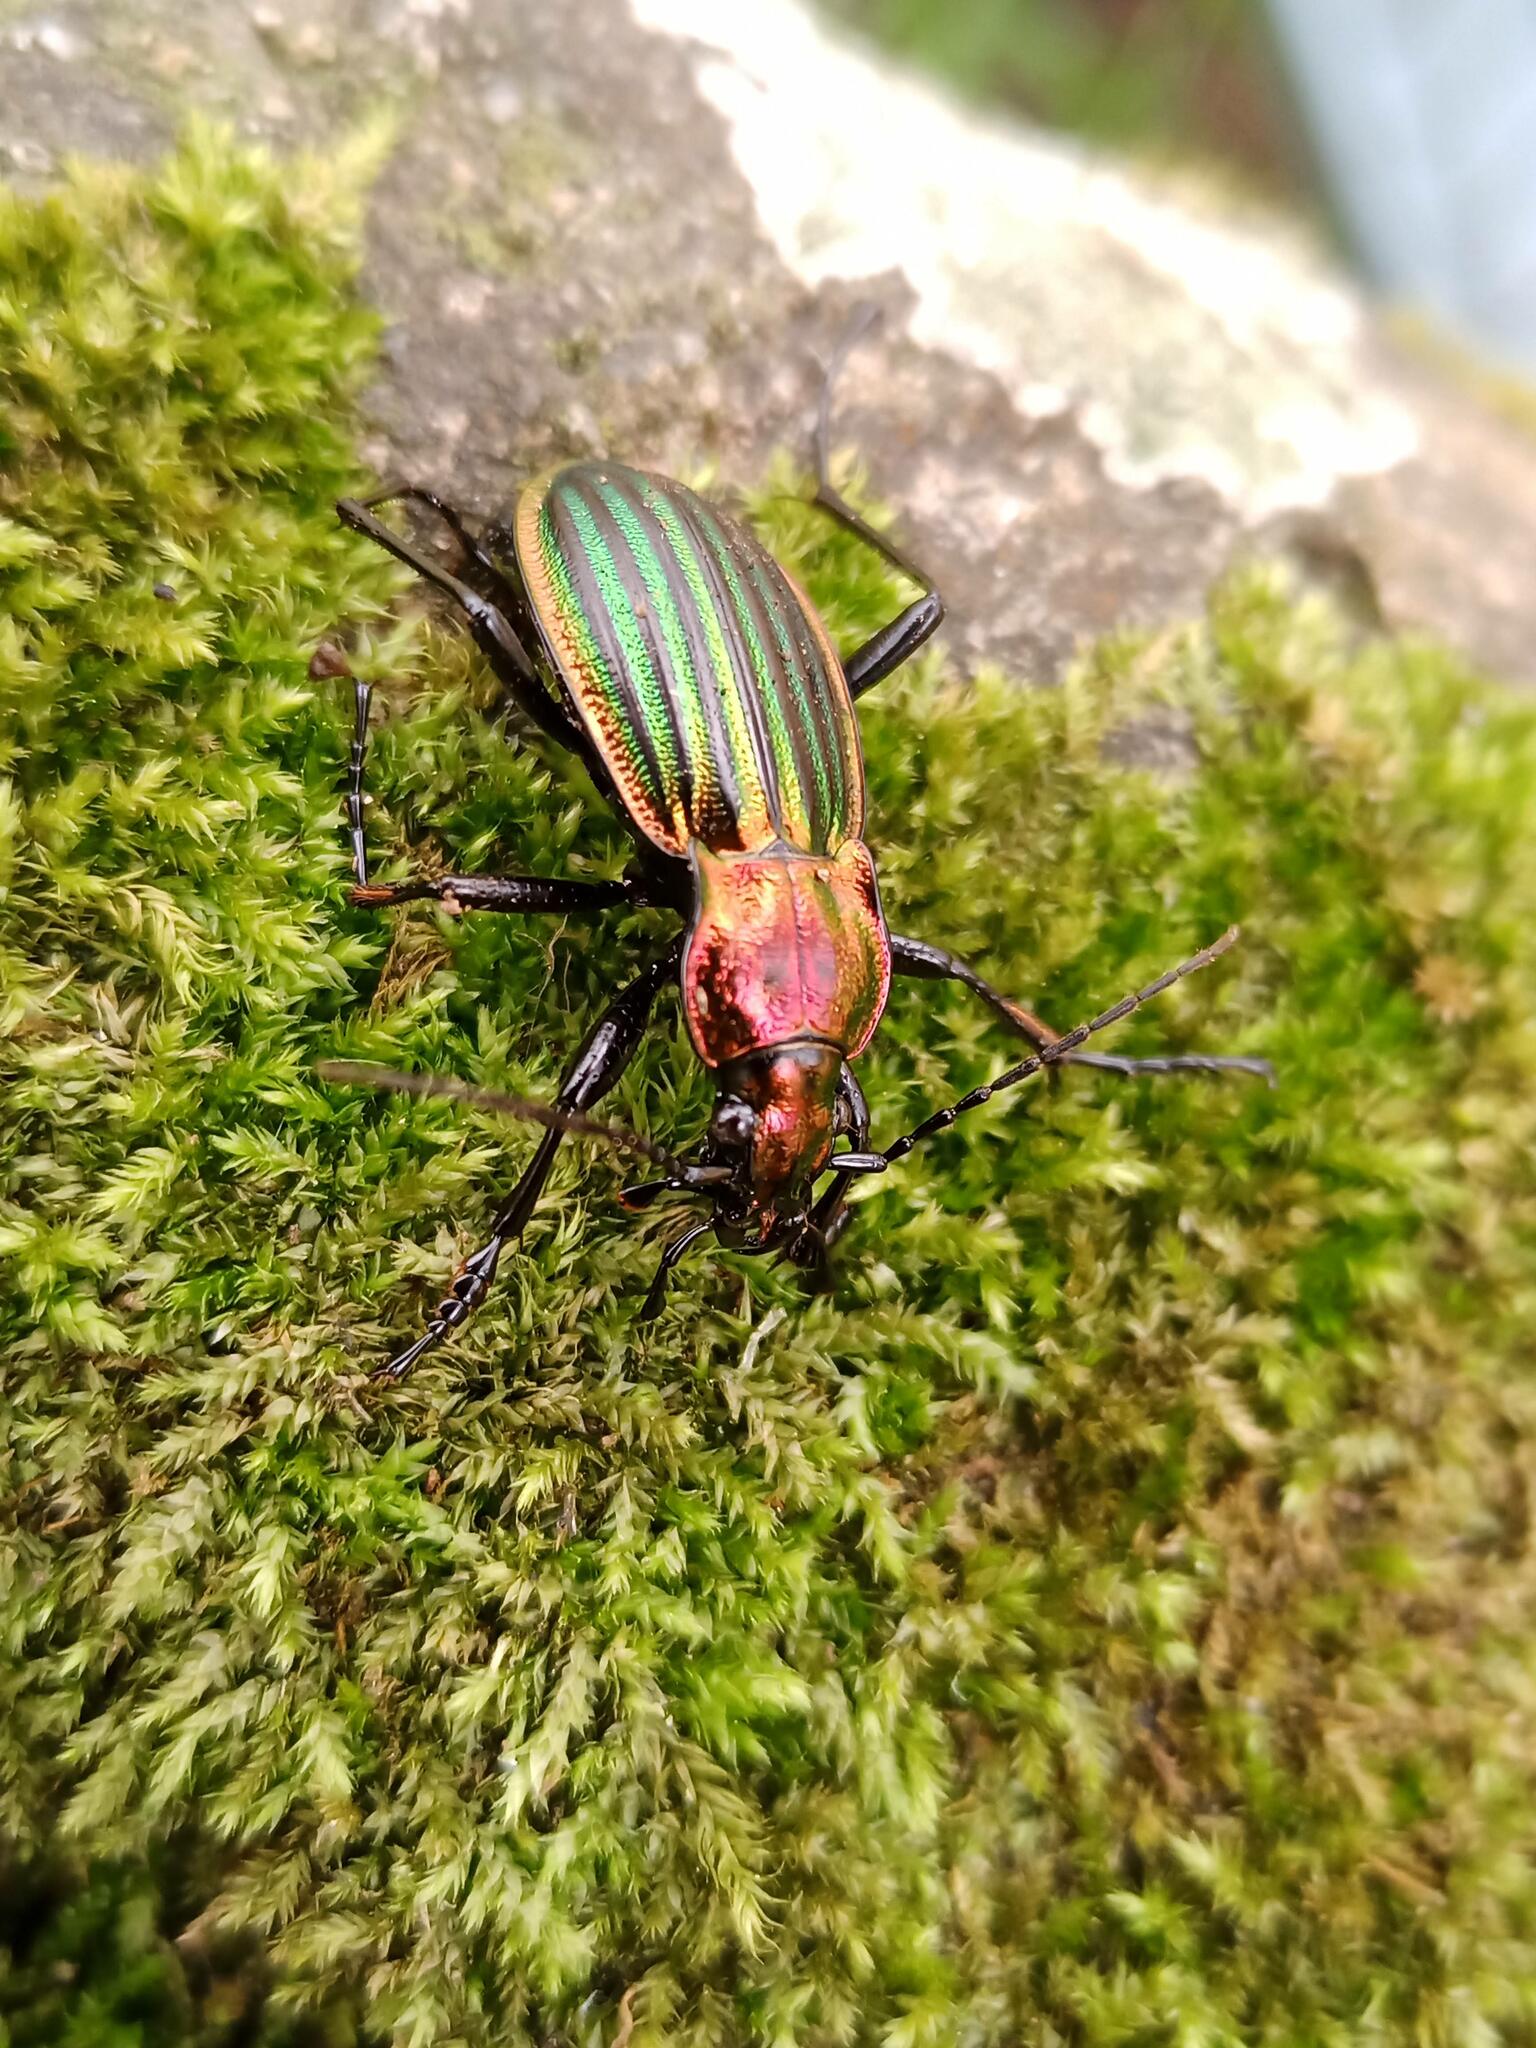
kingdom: Animalia
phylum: Arthropoda
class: Insecta
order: Coleoptera
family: Carabidae
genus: Carabus
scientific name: Carabus strasseri
